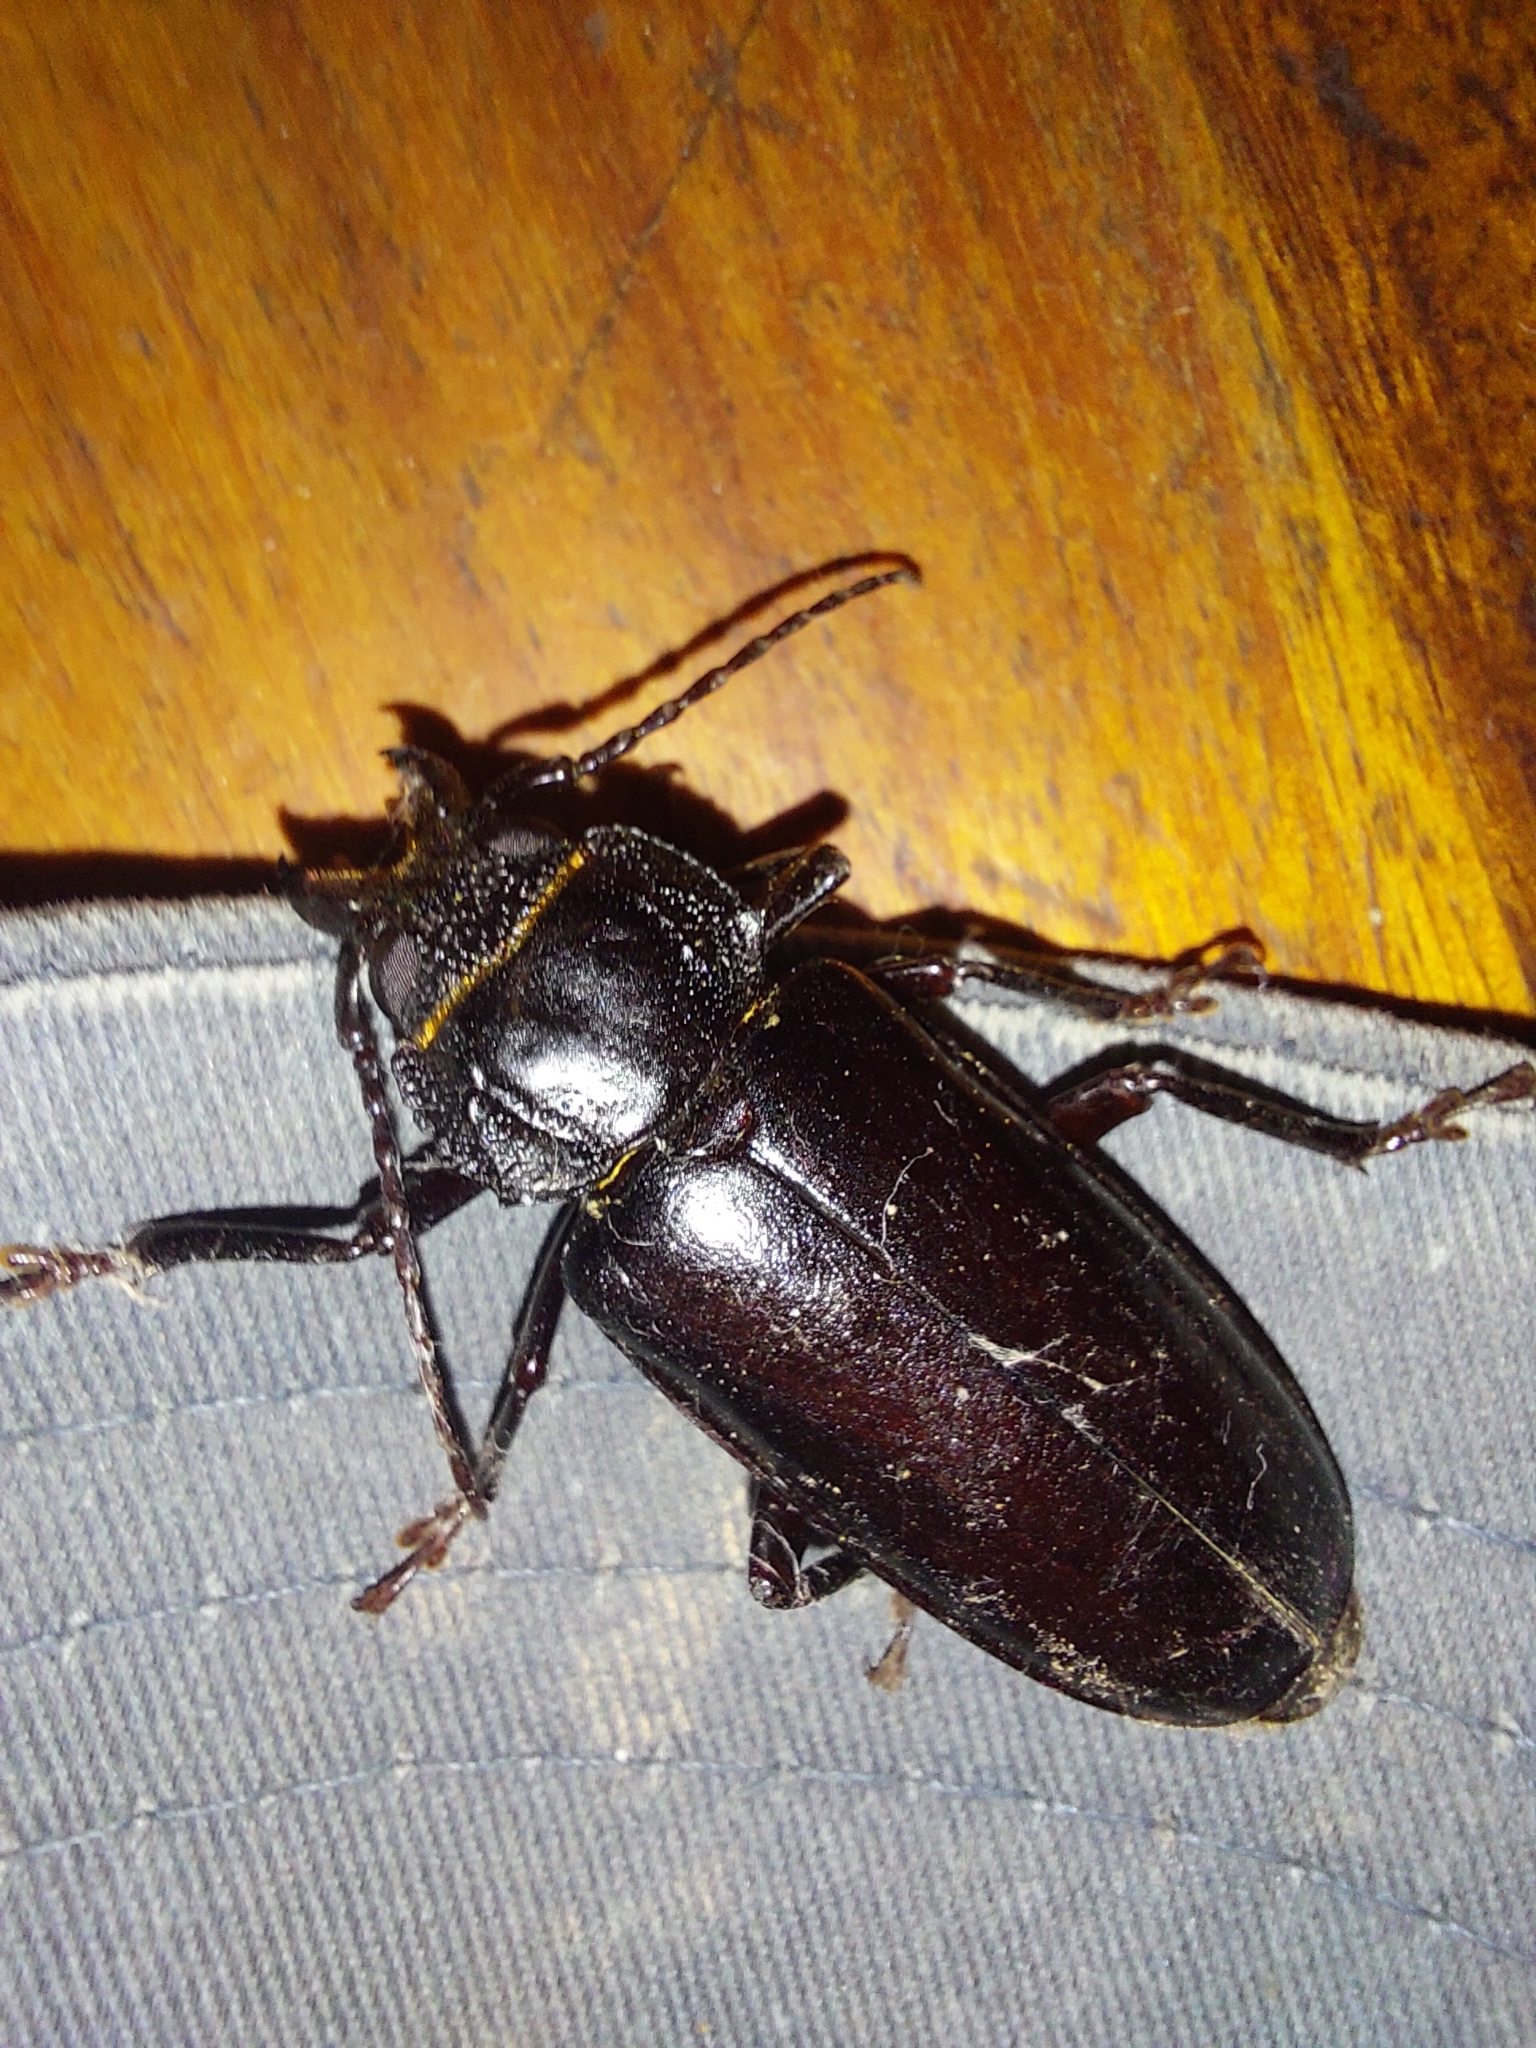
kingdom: Animalia
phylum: Arthropoda
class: Insecta
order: Coleoptera
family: Cerambycidae
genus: Mallodon
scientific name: Mallodon dasystomum
